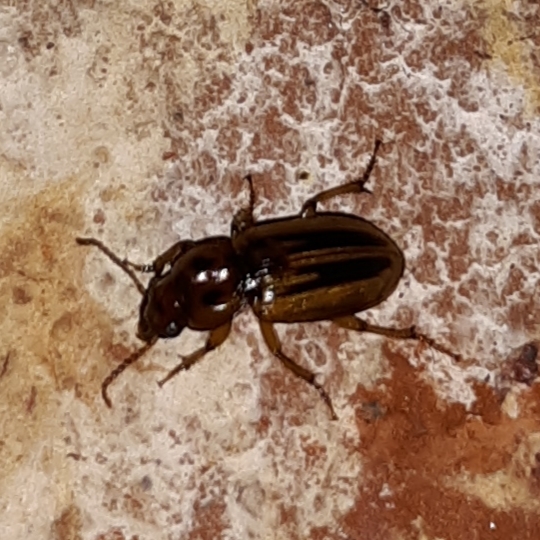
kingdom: Animalia
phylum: Arthropoda
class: Insecta
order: Coleoptera
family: Carabidae
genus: Stenolophus
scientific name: Stenolophus lineola
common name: Lined stenolophus
